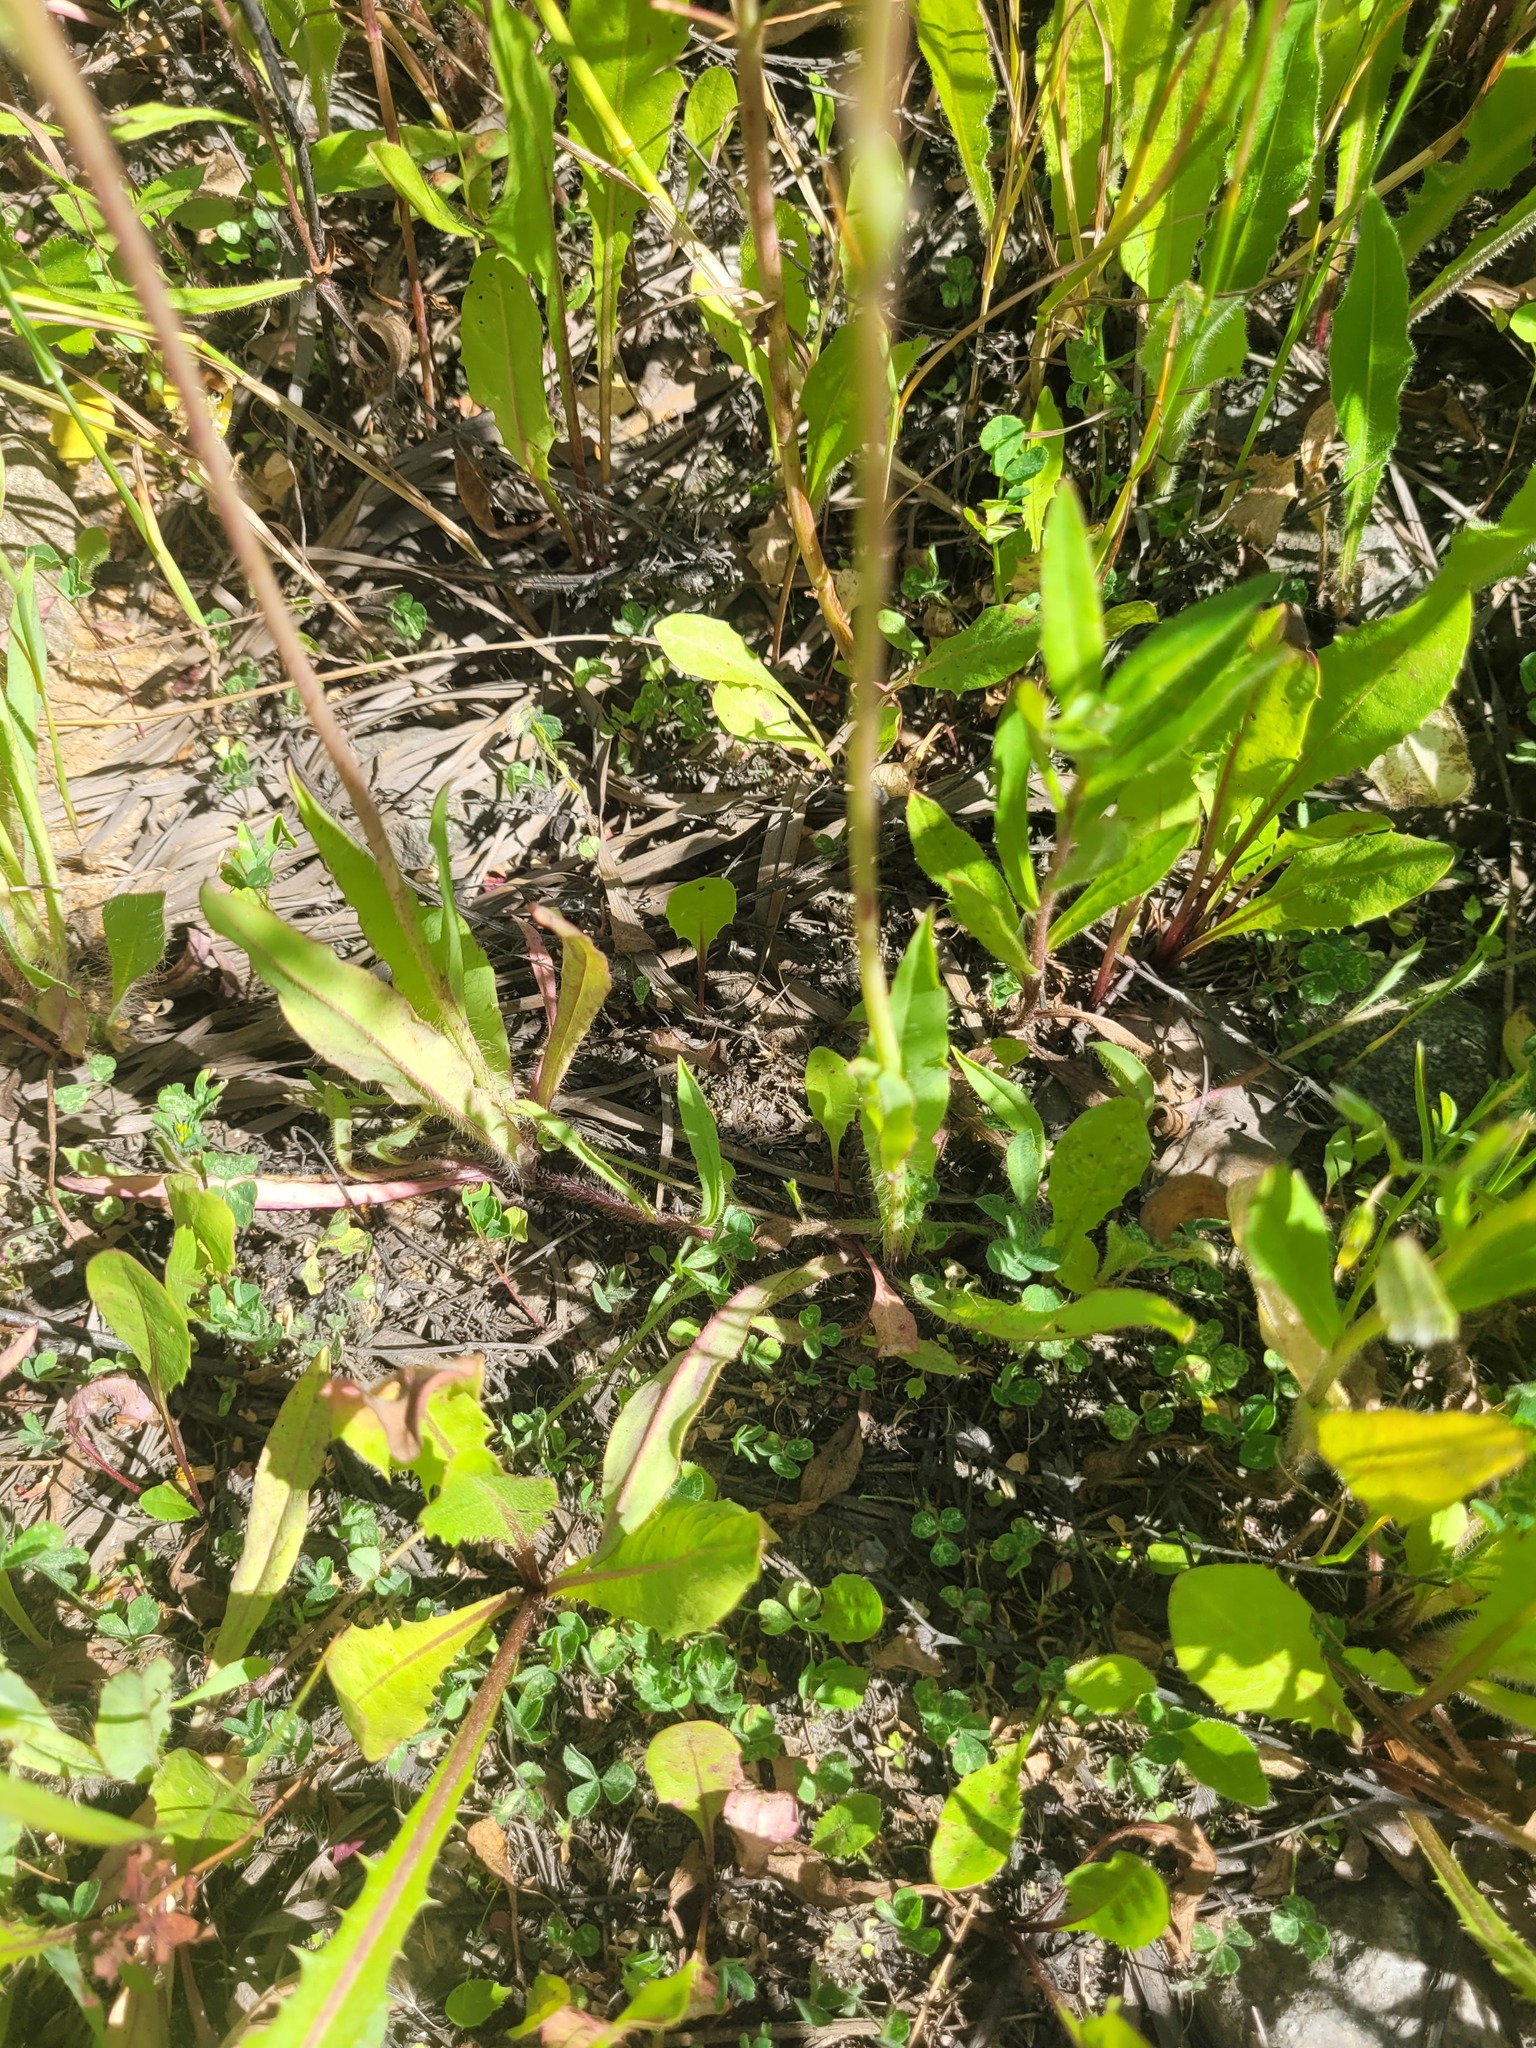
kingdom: Plantae
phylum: Tracheophyta
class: Magnoliopsida
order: Asterales
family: Asteraceae
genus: Pilosella
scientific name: Pilosella
